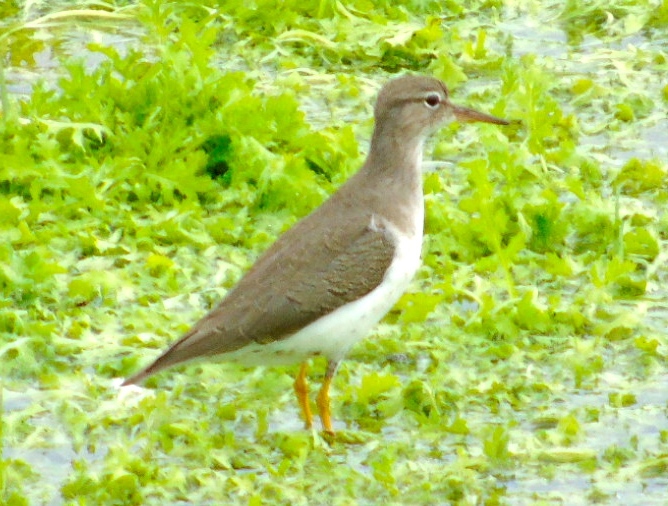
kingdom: Animalia
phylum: Chordata
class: Aves
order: Charadriiformes
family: Scolopacidae
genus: Actitis
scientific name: Actitis macularius
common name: Spotted sandpiper
